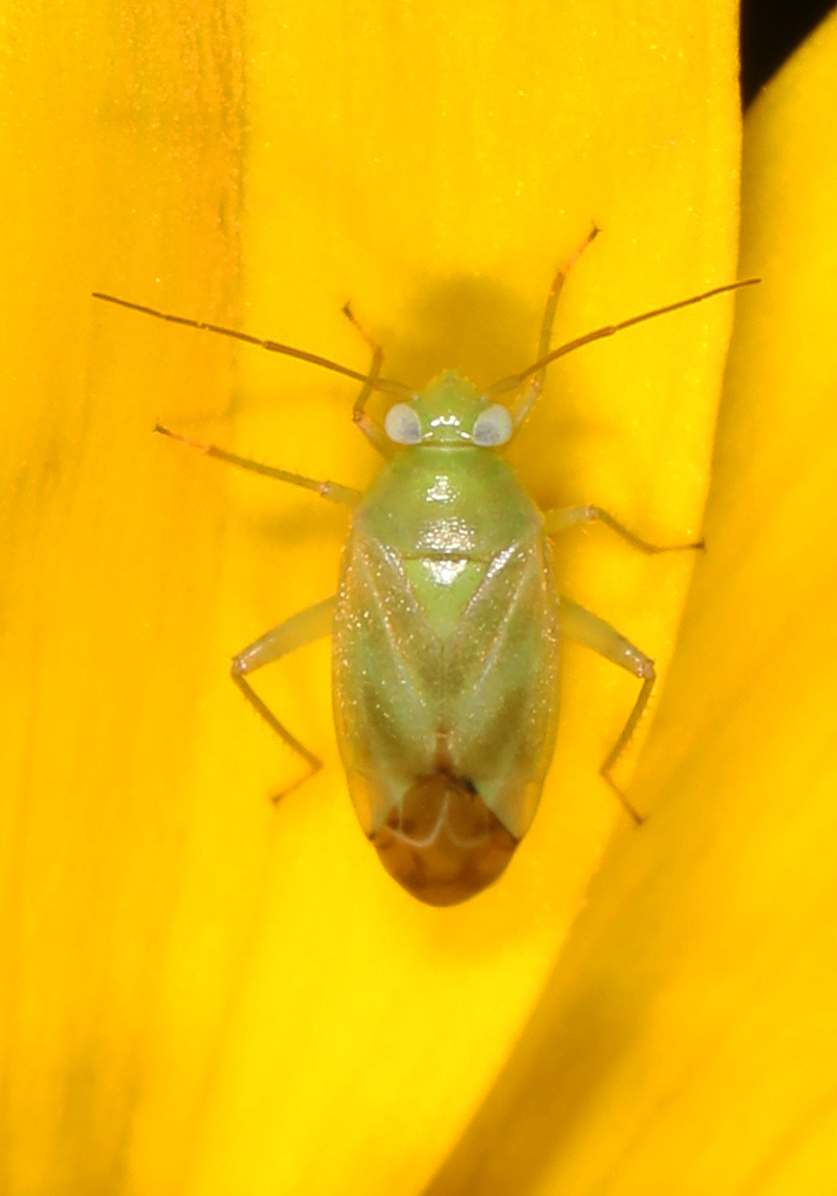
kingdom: Animalia
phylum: Arthropoda
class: Insecta
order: Hemiptera
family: Miridae
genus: Taylorilygus
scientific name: Taylorilygus apicalis
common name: Plant bug
